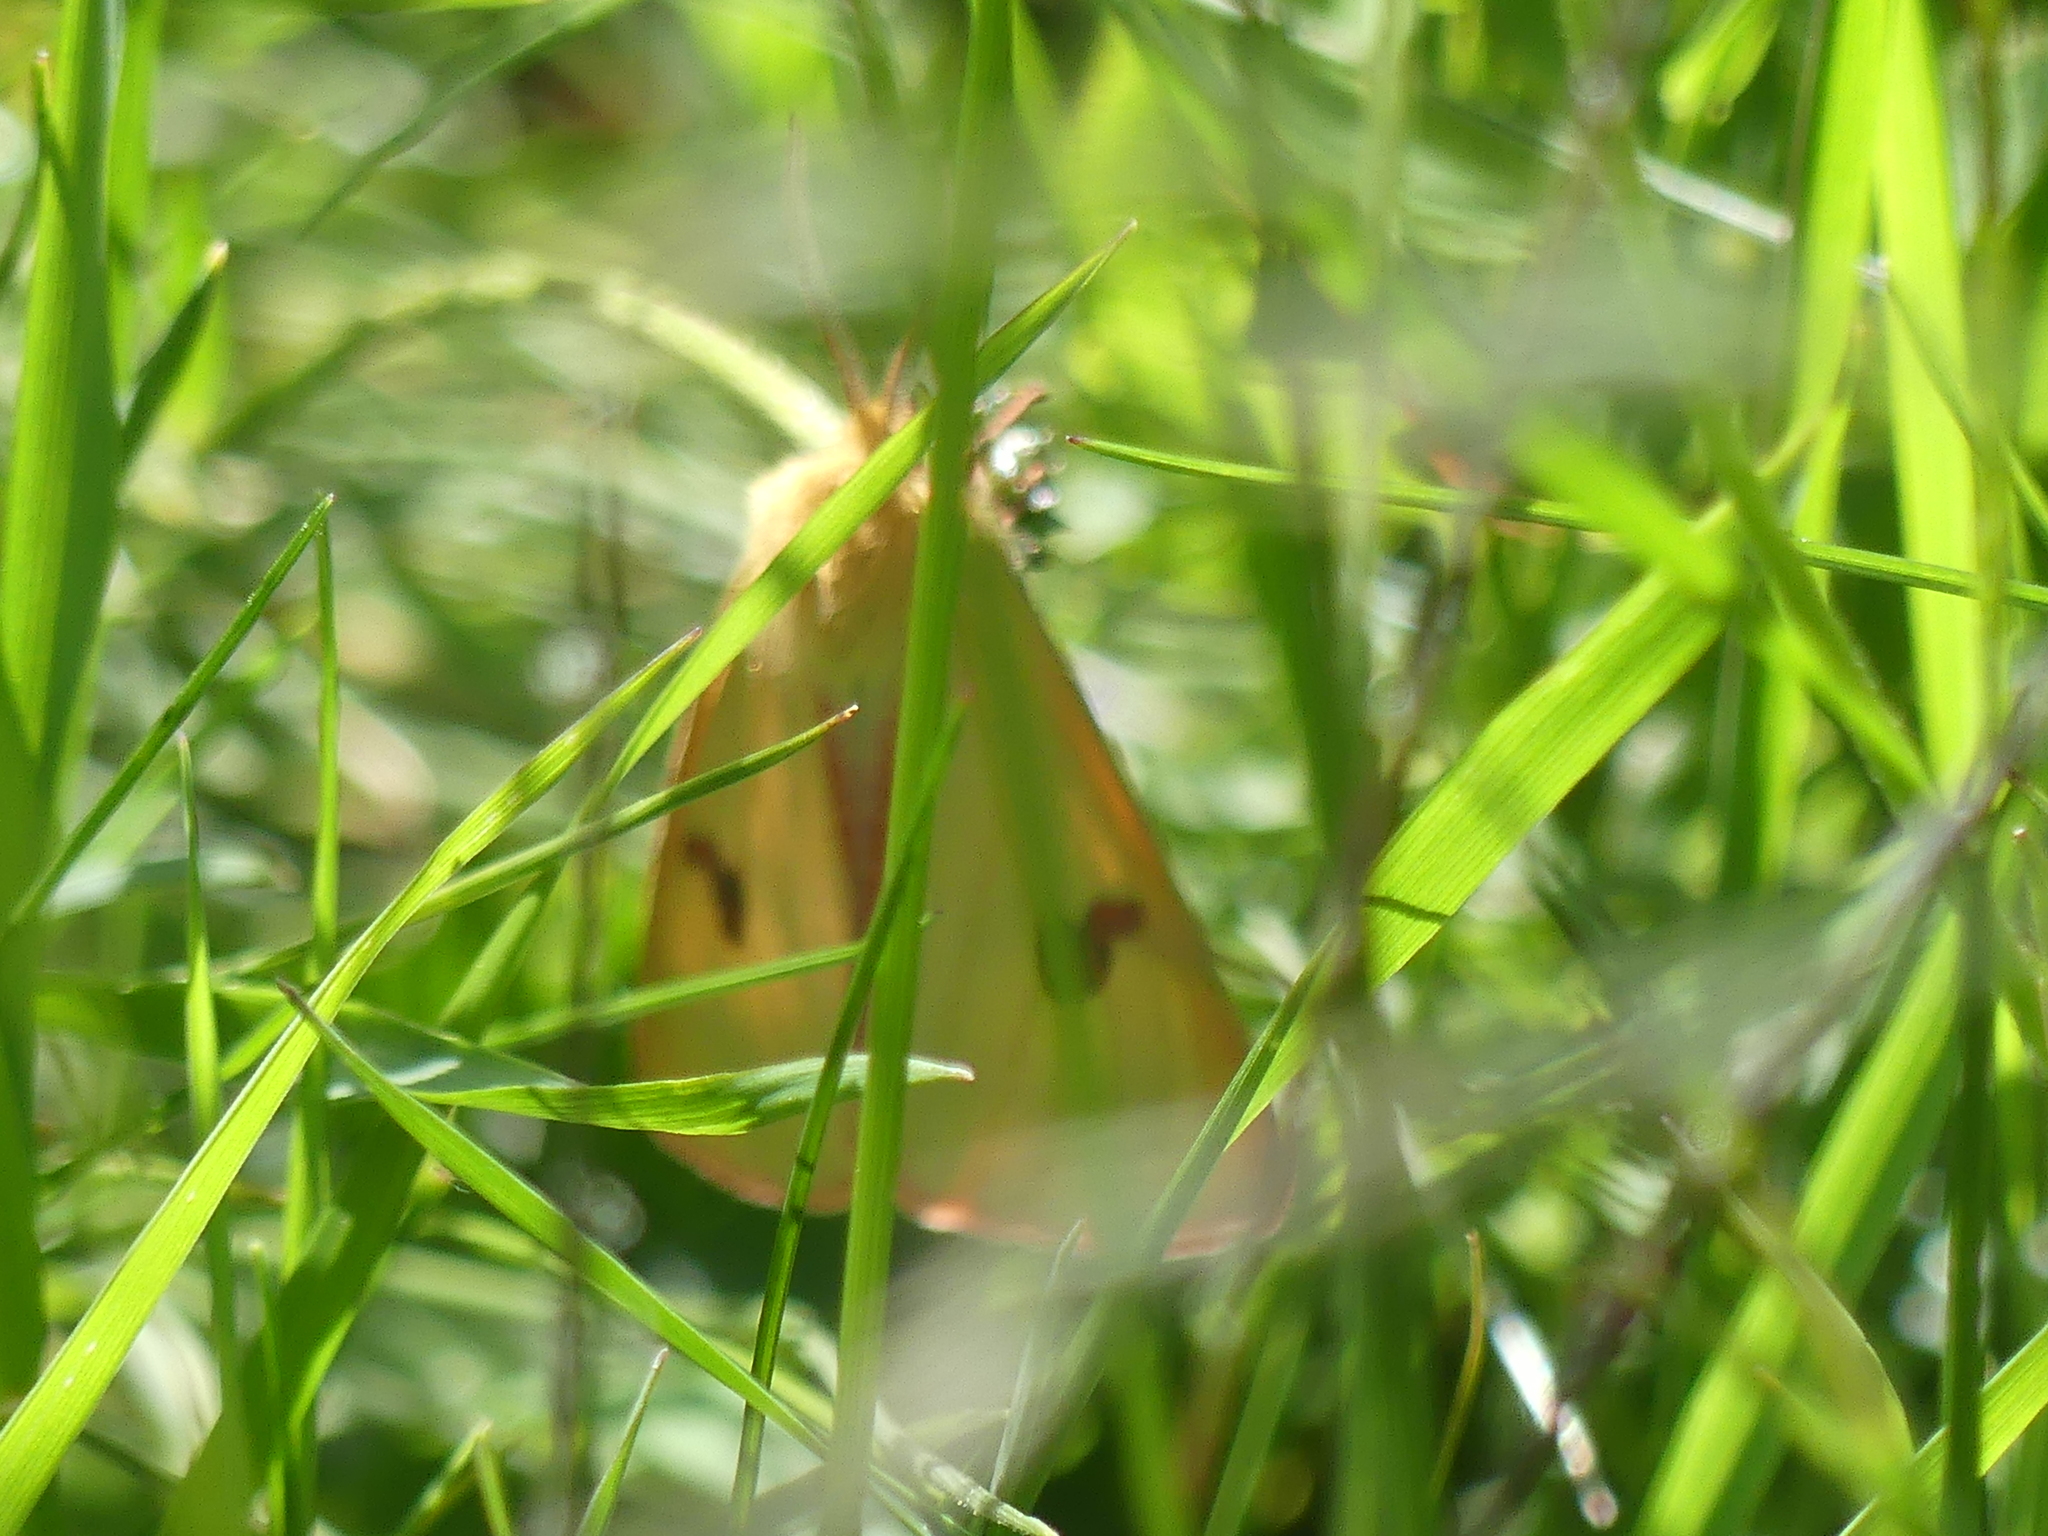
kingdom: Animalia
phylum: Arthropoda
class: Insecta
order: Lepidoptera
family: Erebidae
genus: Diacrisia
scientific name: Diacrisia sannio
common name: Clouded buff
